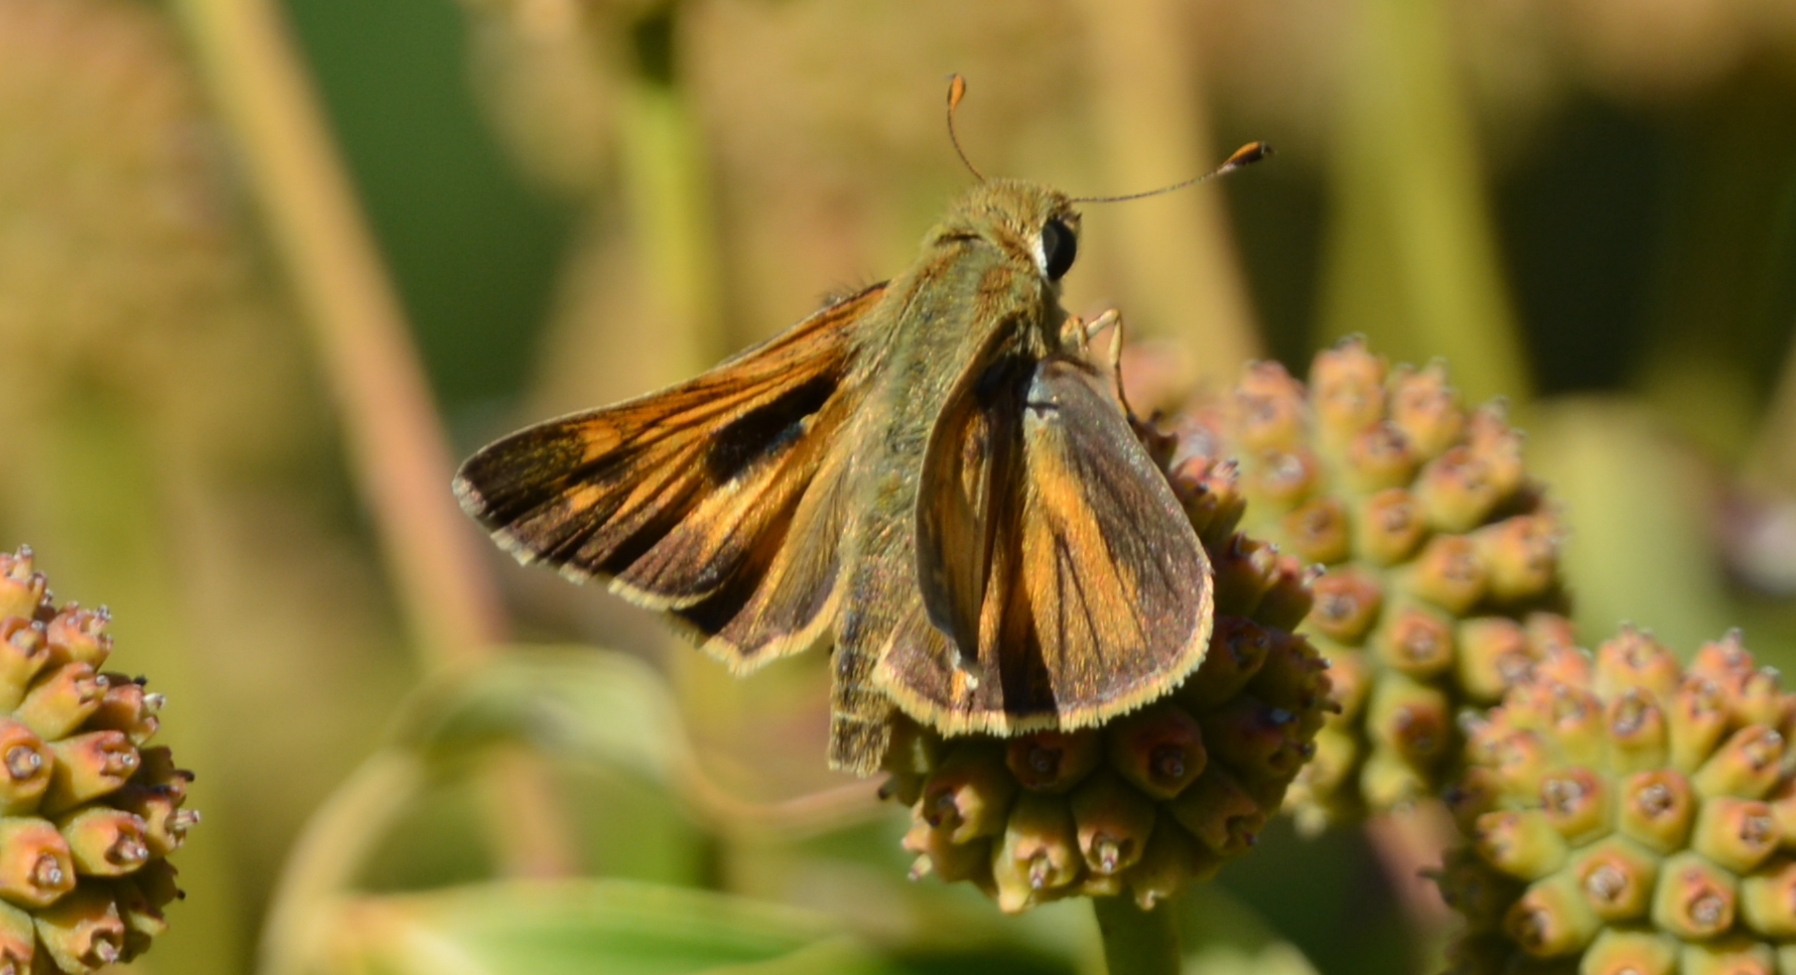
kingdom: Animalia
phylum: Arthropoda
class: Insecta
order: Lepidoptera
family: Hesperiidae
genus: Atalopedes
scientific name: Atalopedes
